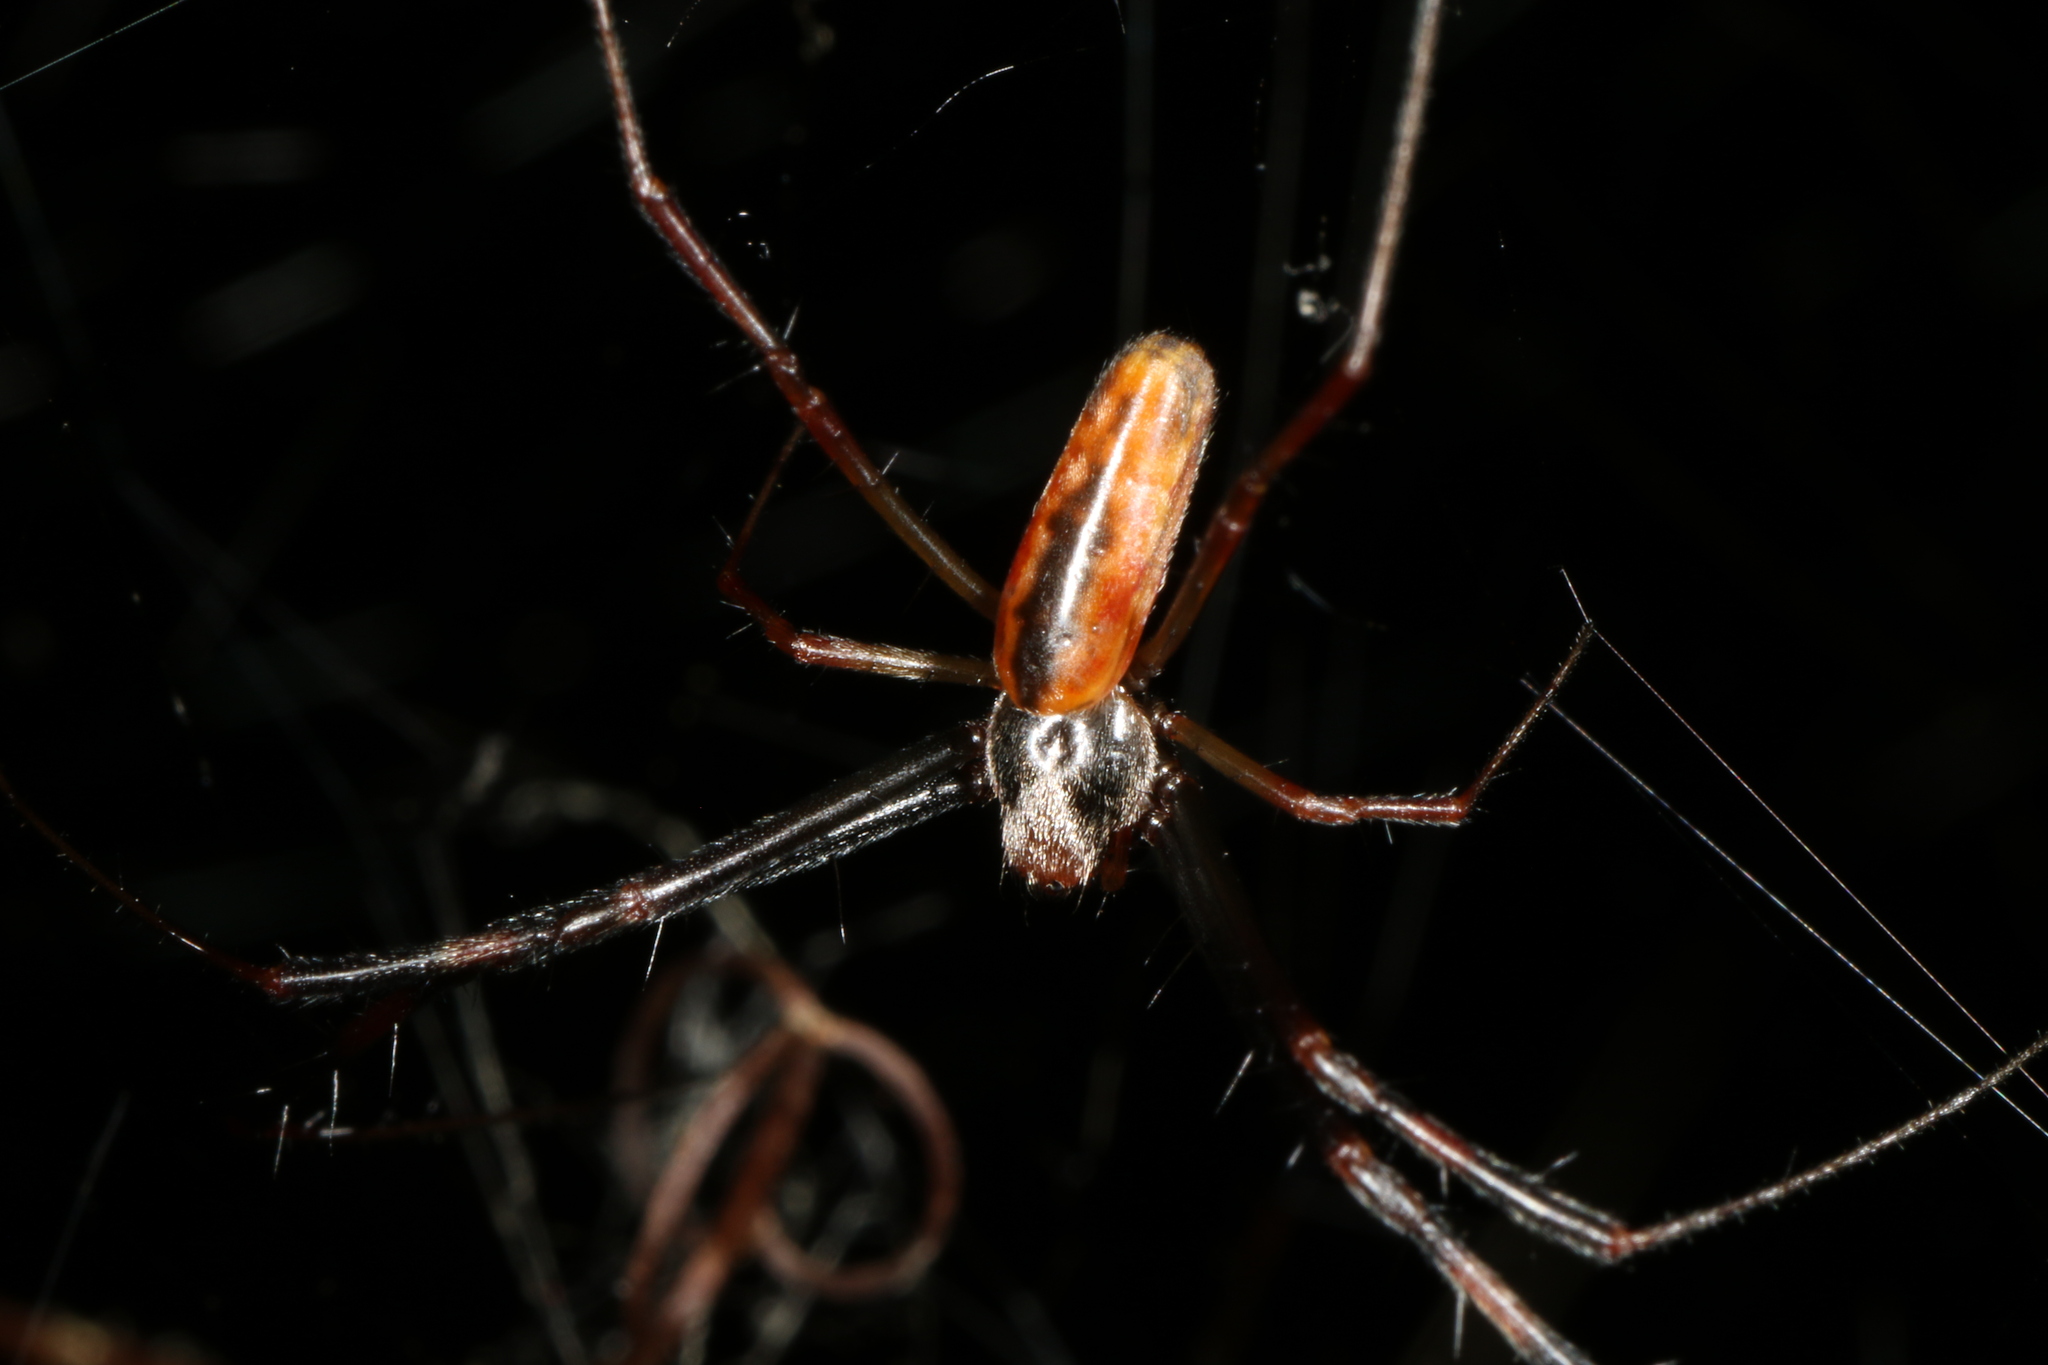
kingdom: Animalia
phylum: Arthropoda
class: Arachnida
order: Araneae
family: Araneidae
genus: Trichonephila
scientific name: Trichonephila clavipes
